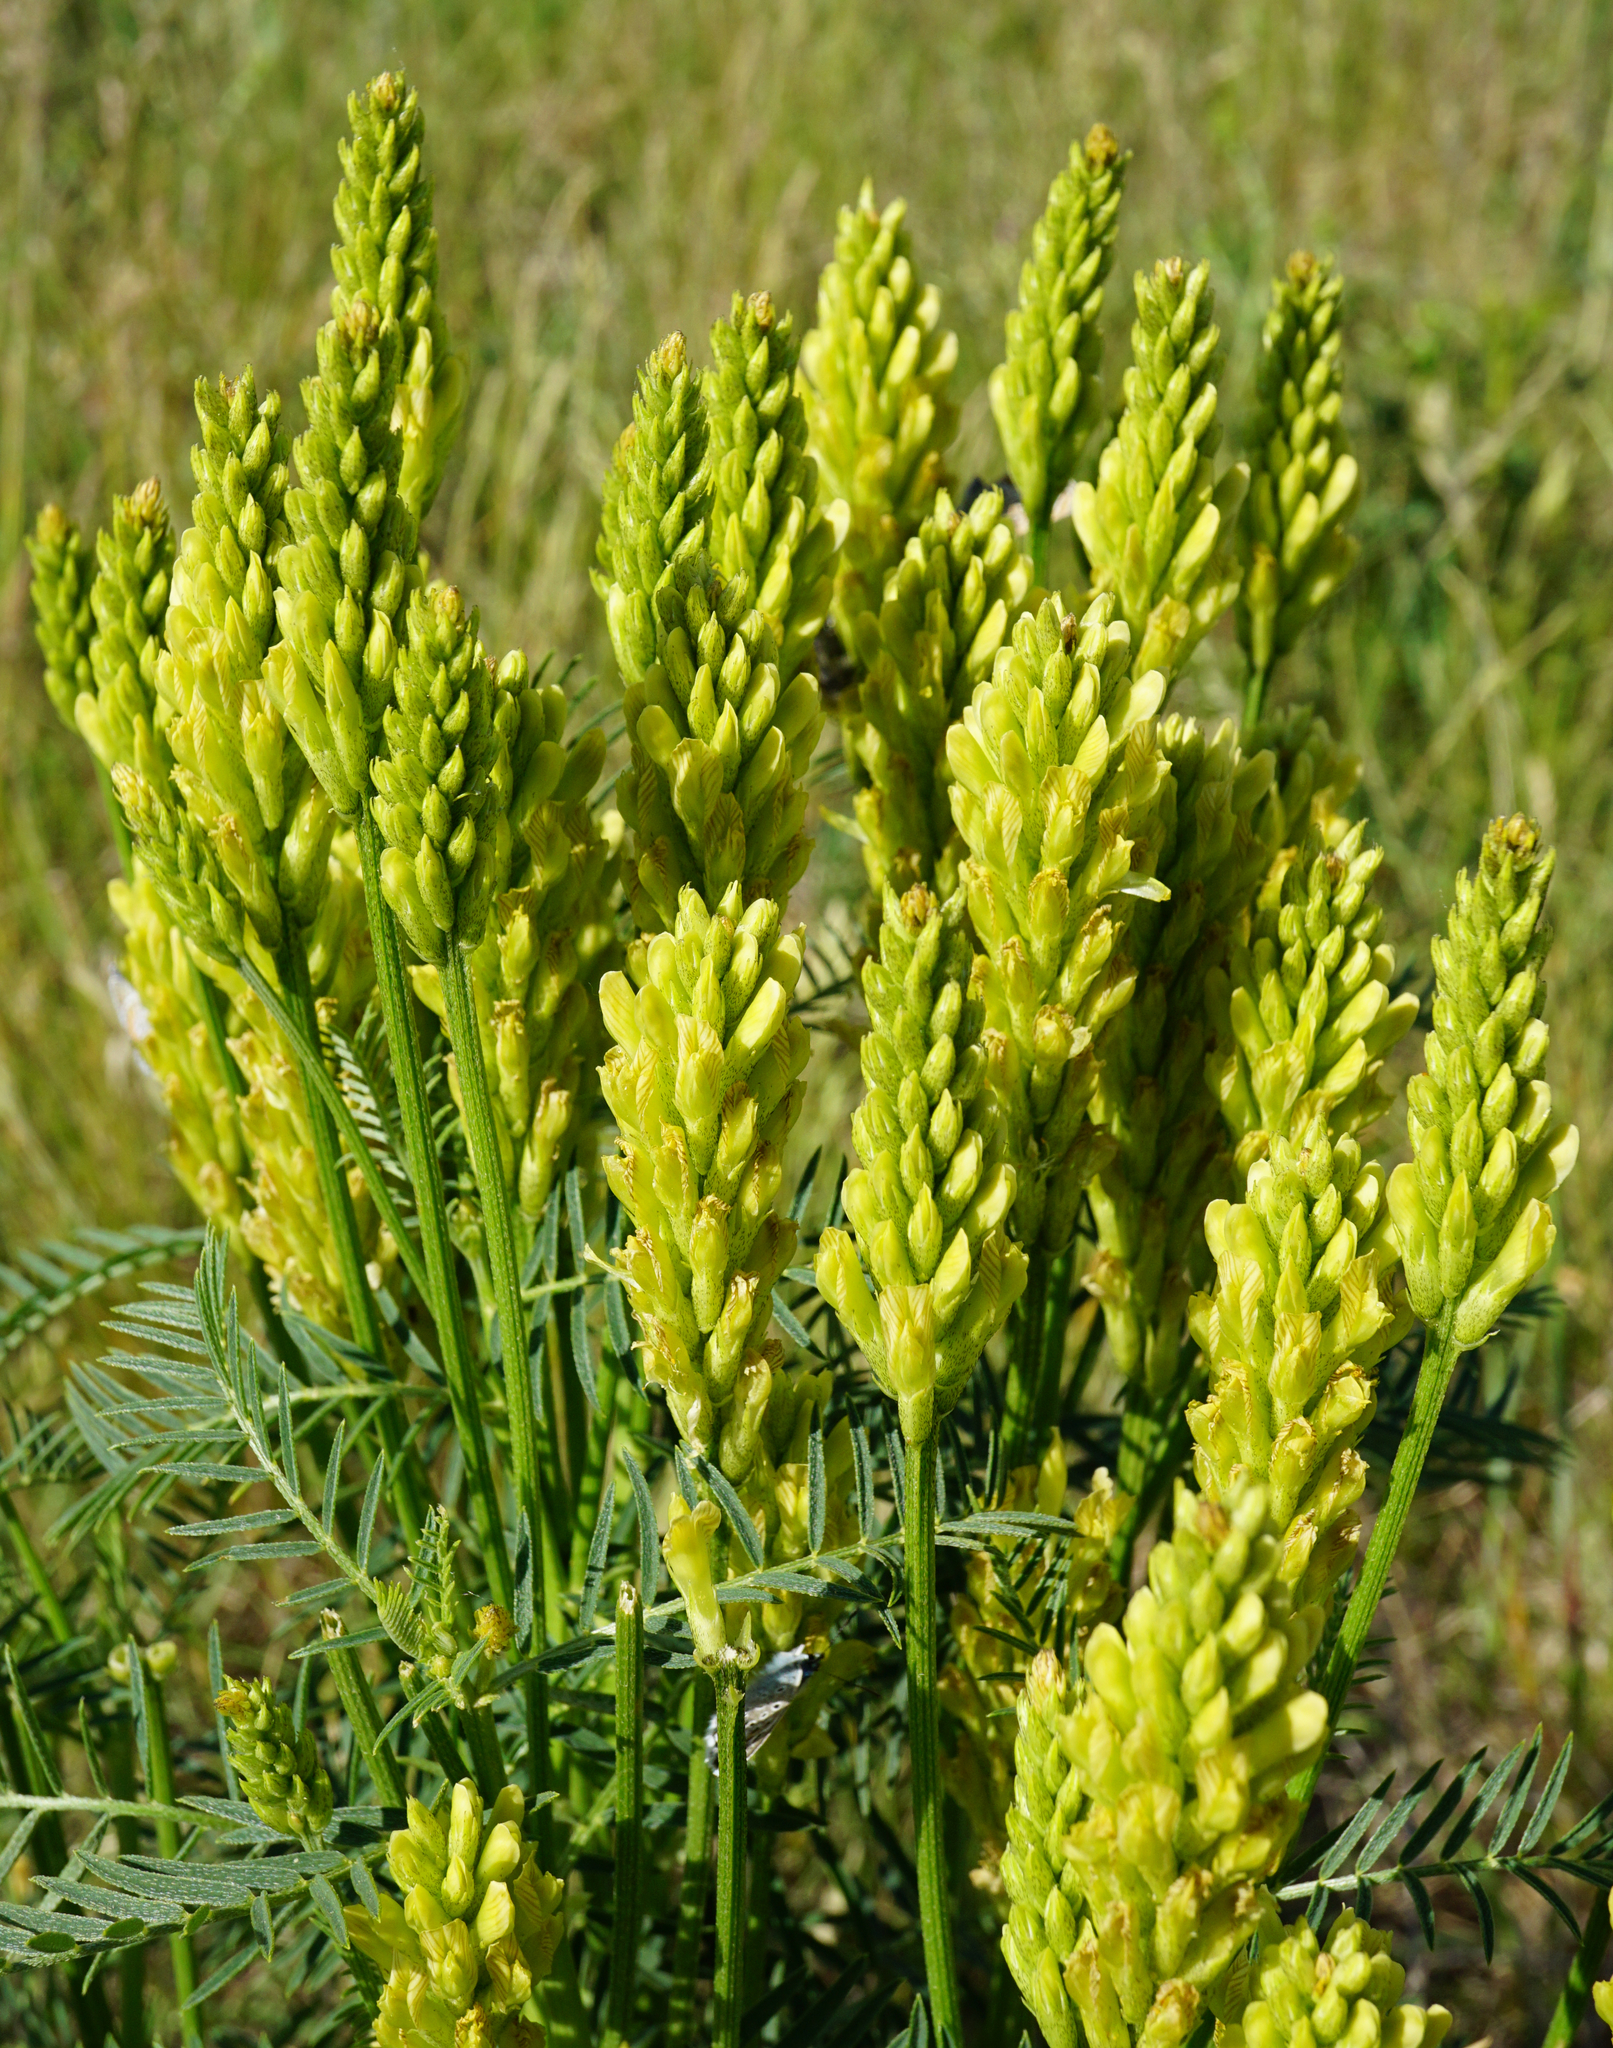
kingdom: Plantae
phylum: Tracheophyta
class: Magnoliopsida
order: Fabales
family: Fabaceae
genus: Astragalus
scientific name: Astragalus asper
